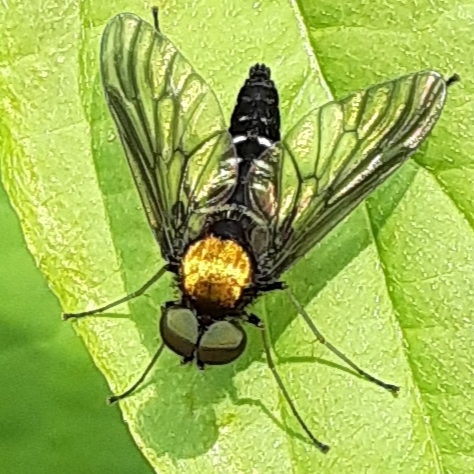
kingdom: Animalia
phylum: Arthropoda
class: Insecta
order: Diptera
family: Rhagionidae
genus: Chrysopilus
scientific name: Chrysopilus thoracicus
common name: Golden-backed snipe fly
